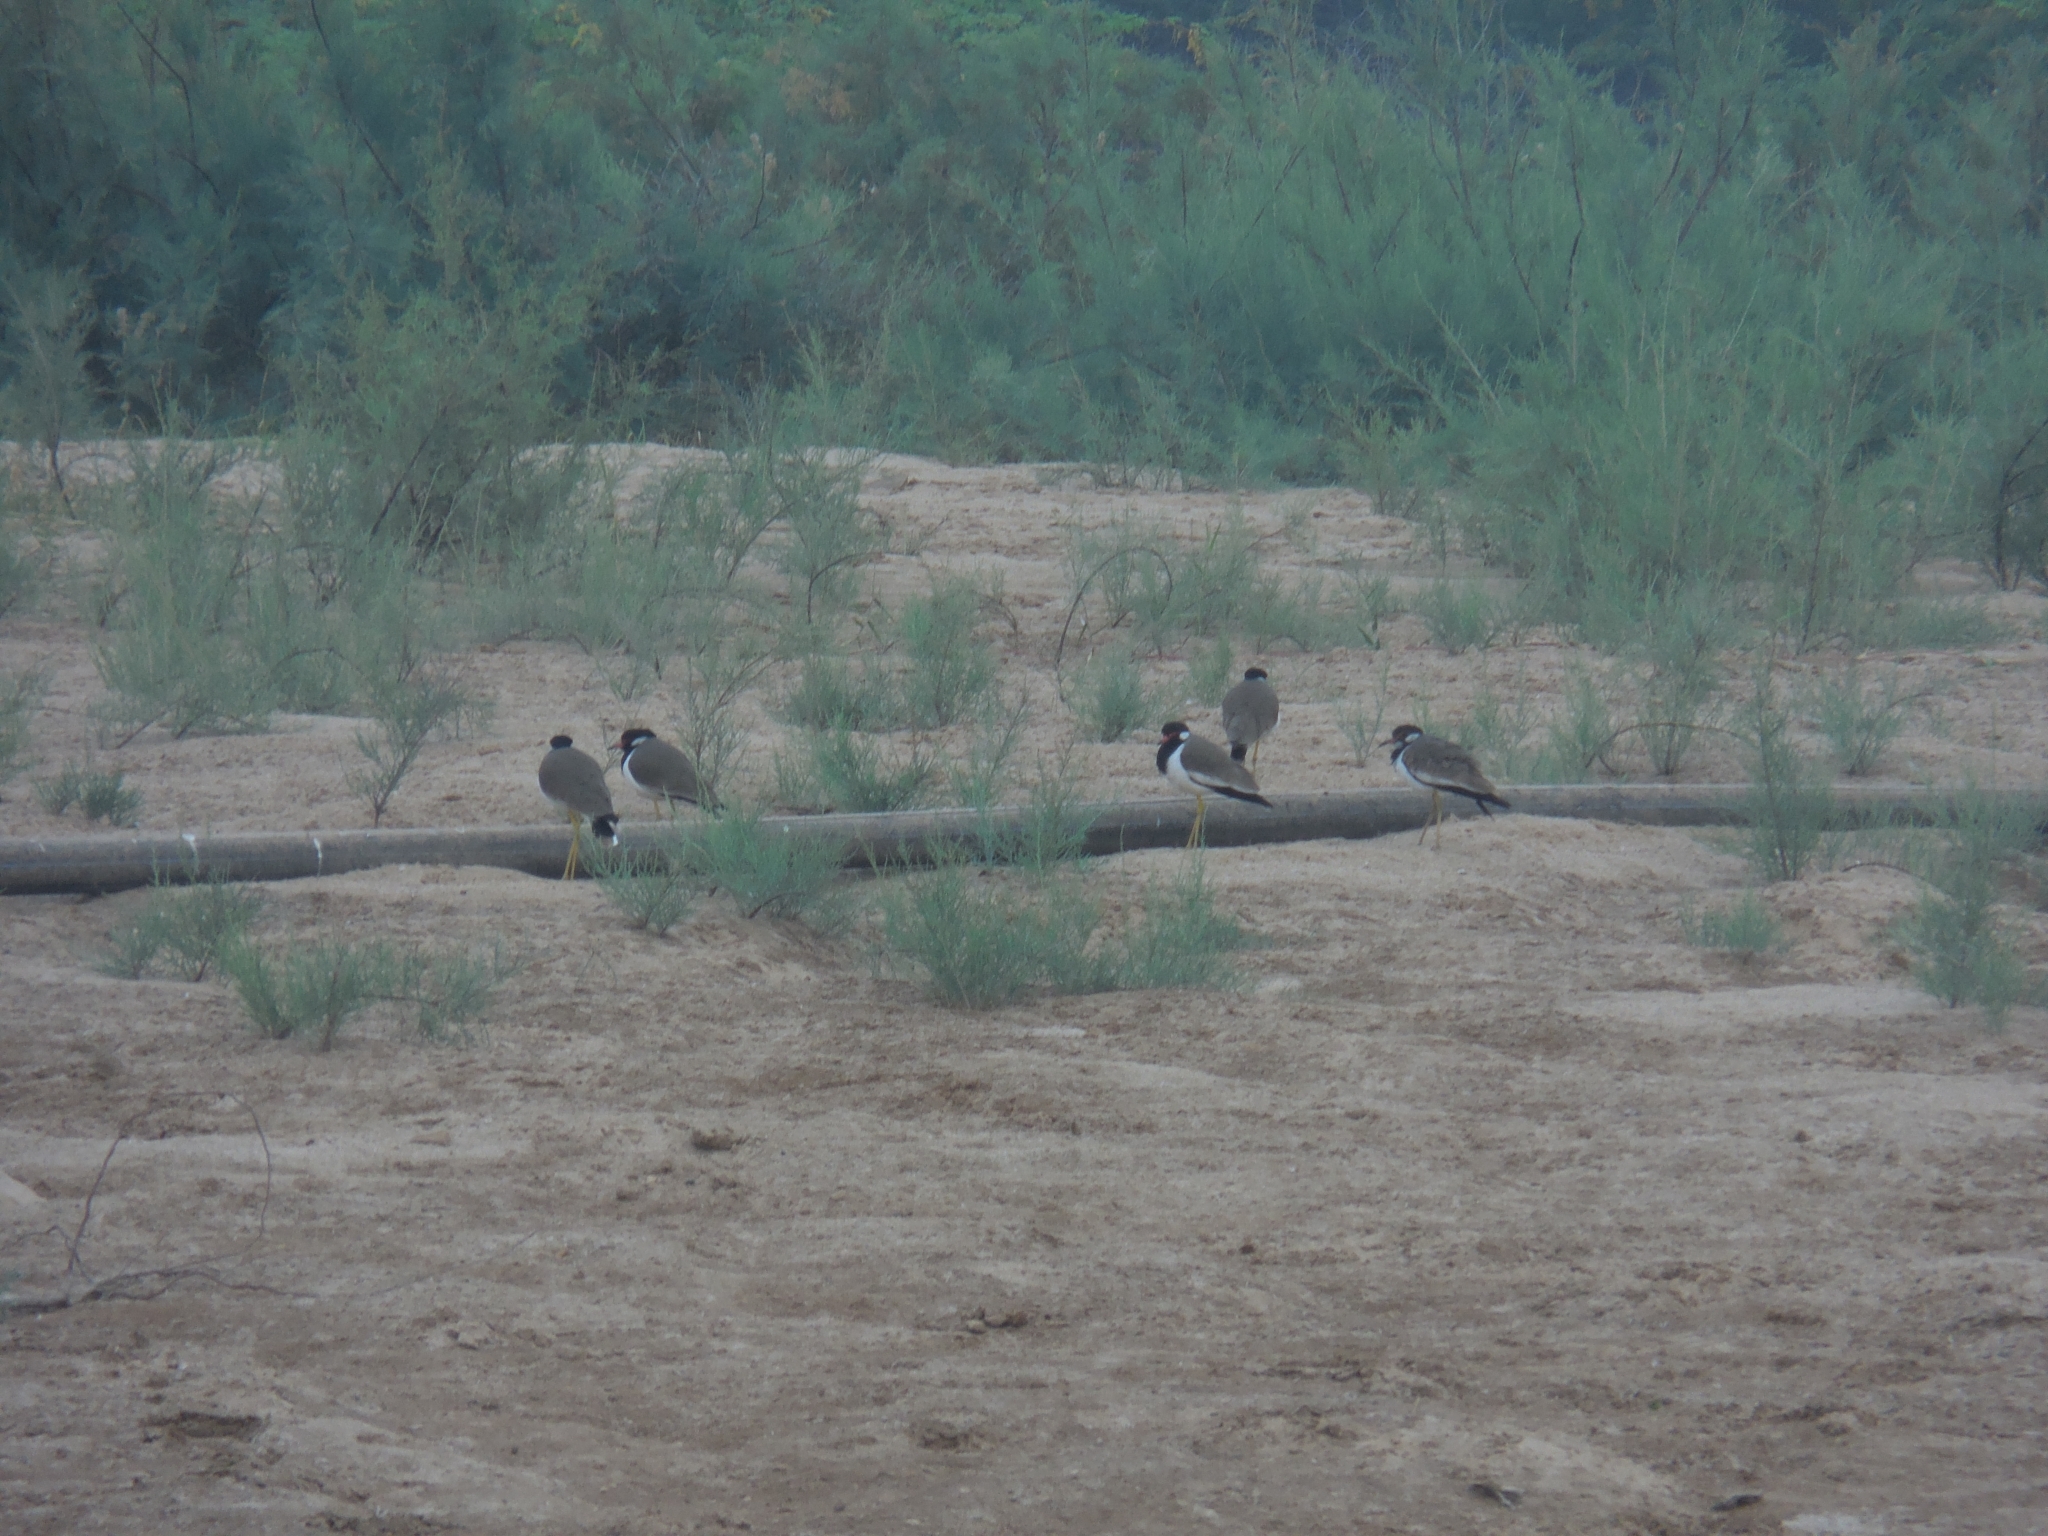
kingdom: Animalia
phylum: Chordata
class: Aves
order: Charadriiformes
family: Charadriidae
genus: Vanellus
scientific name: Vanellus indicus
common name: Red-wattled lapwing
